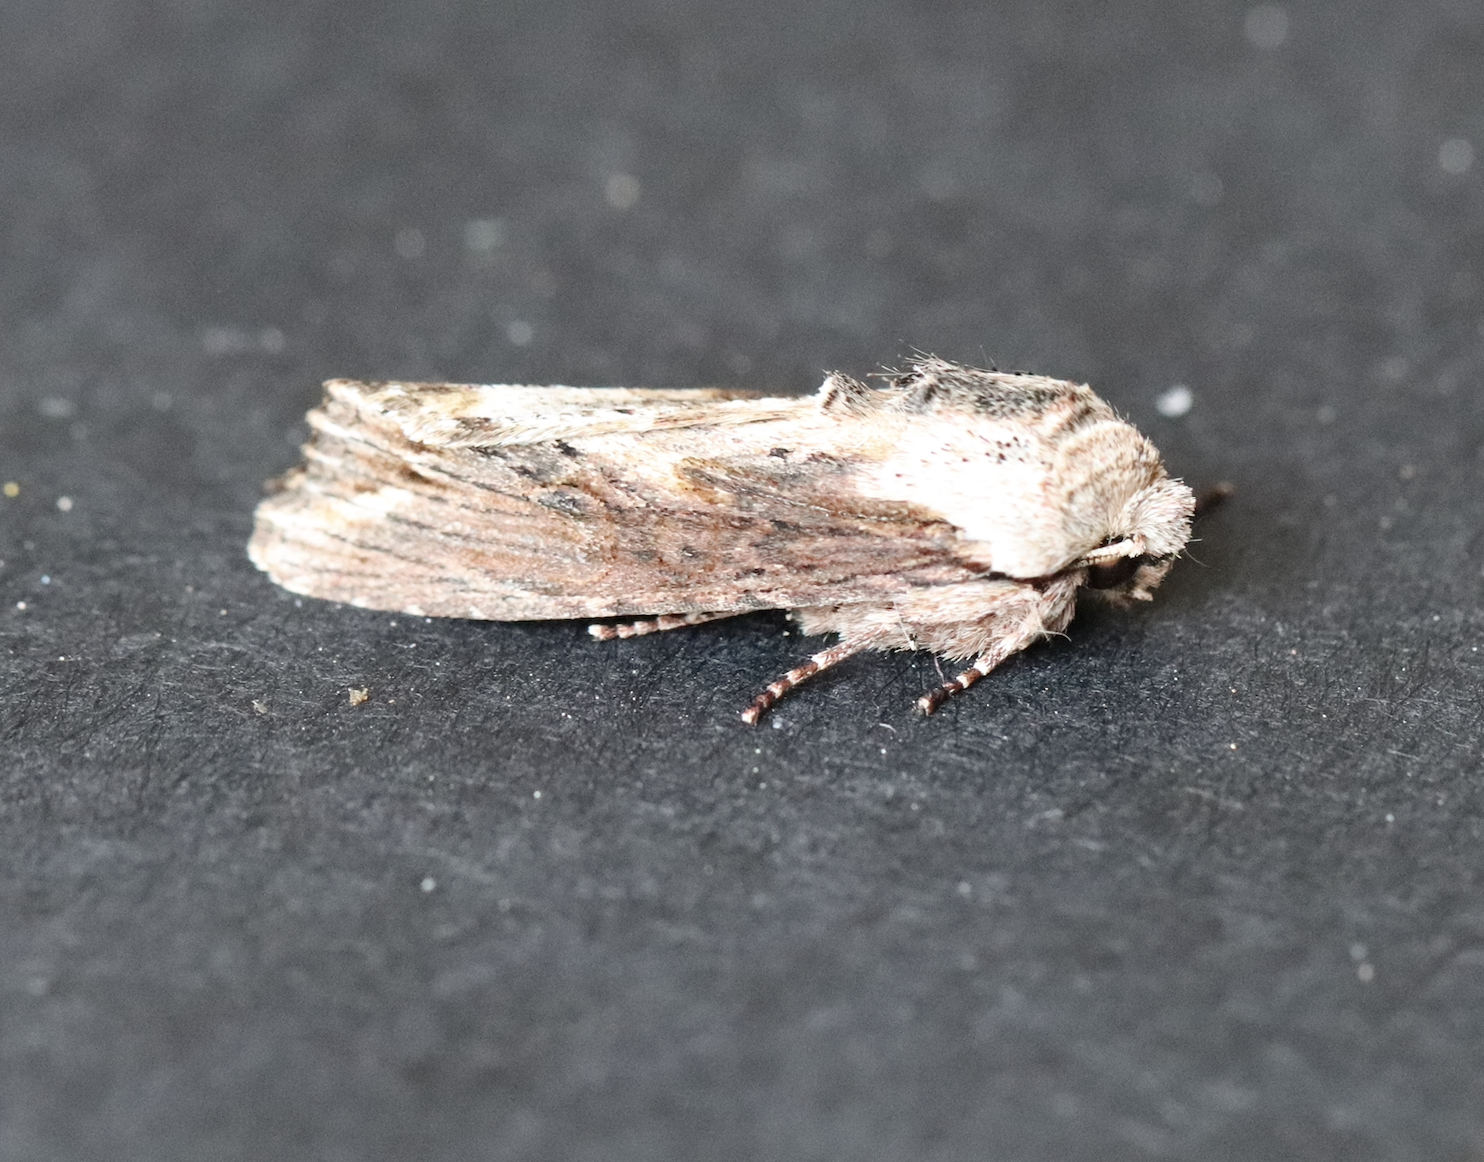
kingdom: Animalia
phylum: Arthropoda
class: Insecta
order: Lepidoptera
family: Noctuidae
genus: Egira
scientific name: Egira conspicillaris
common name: Silver cloud
